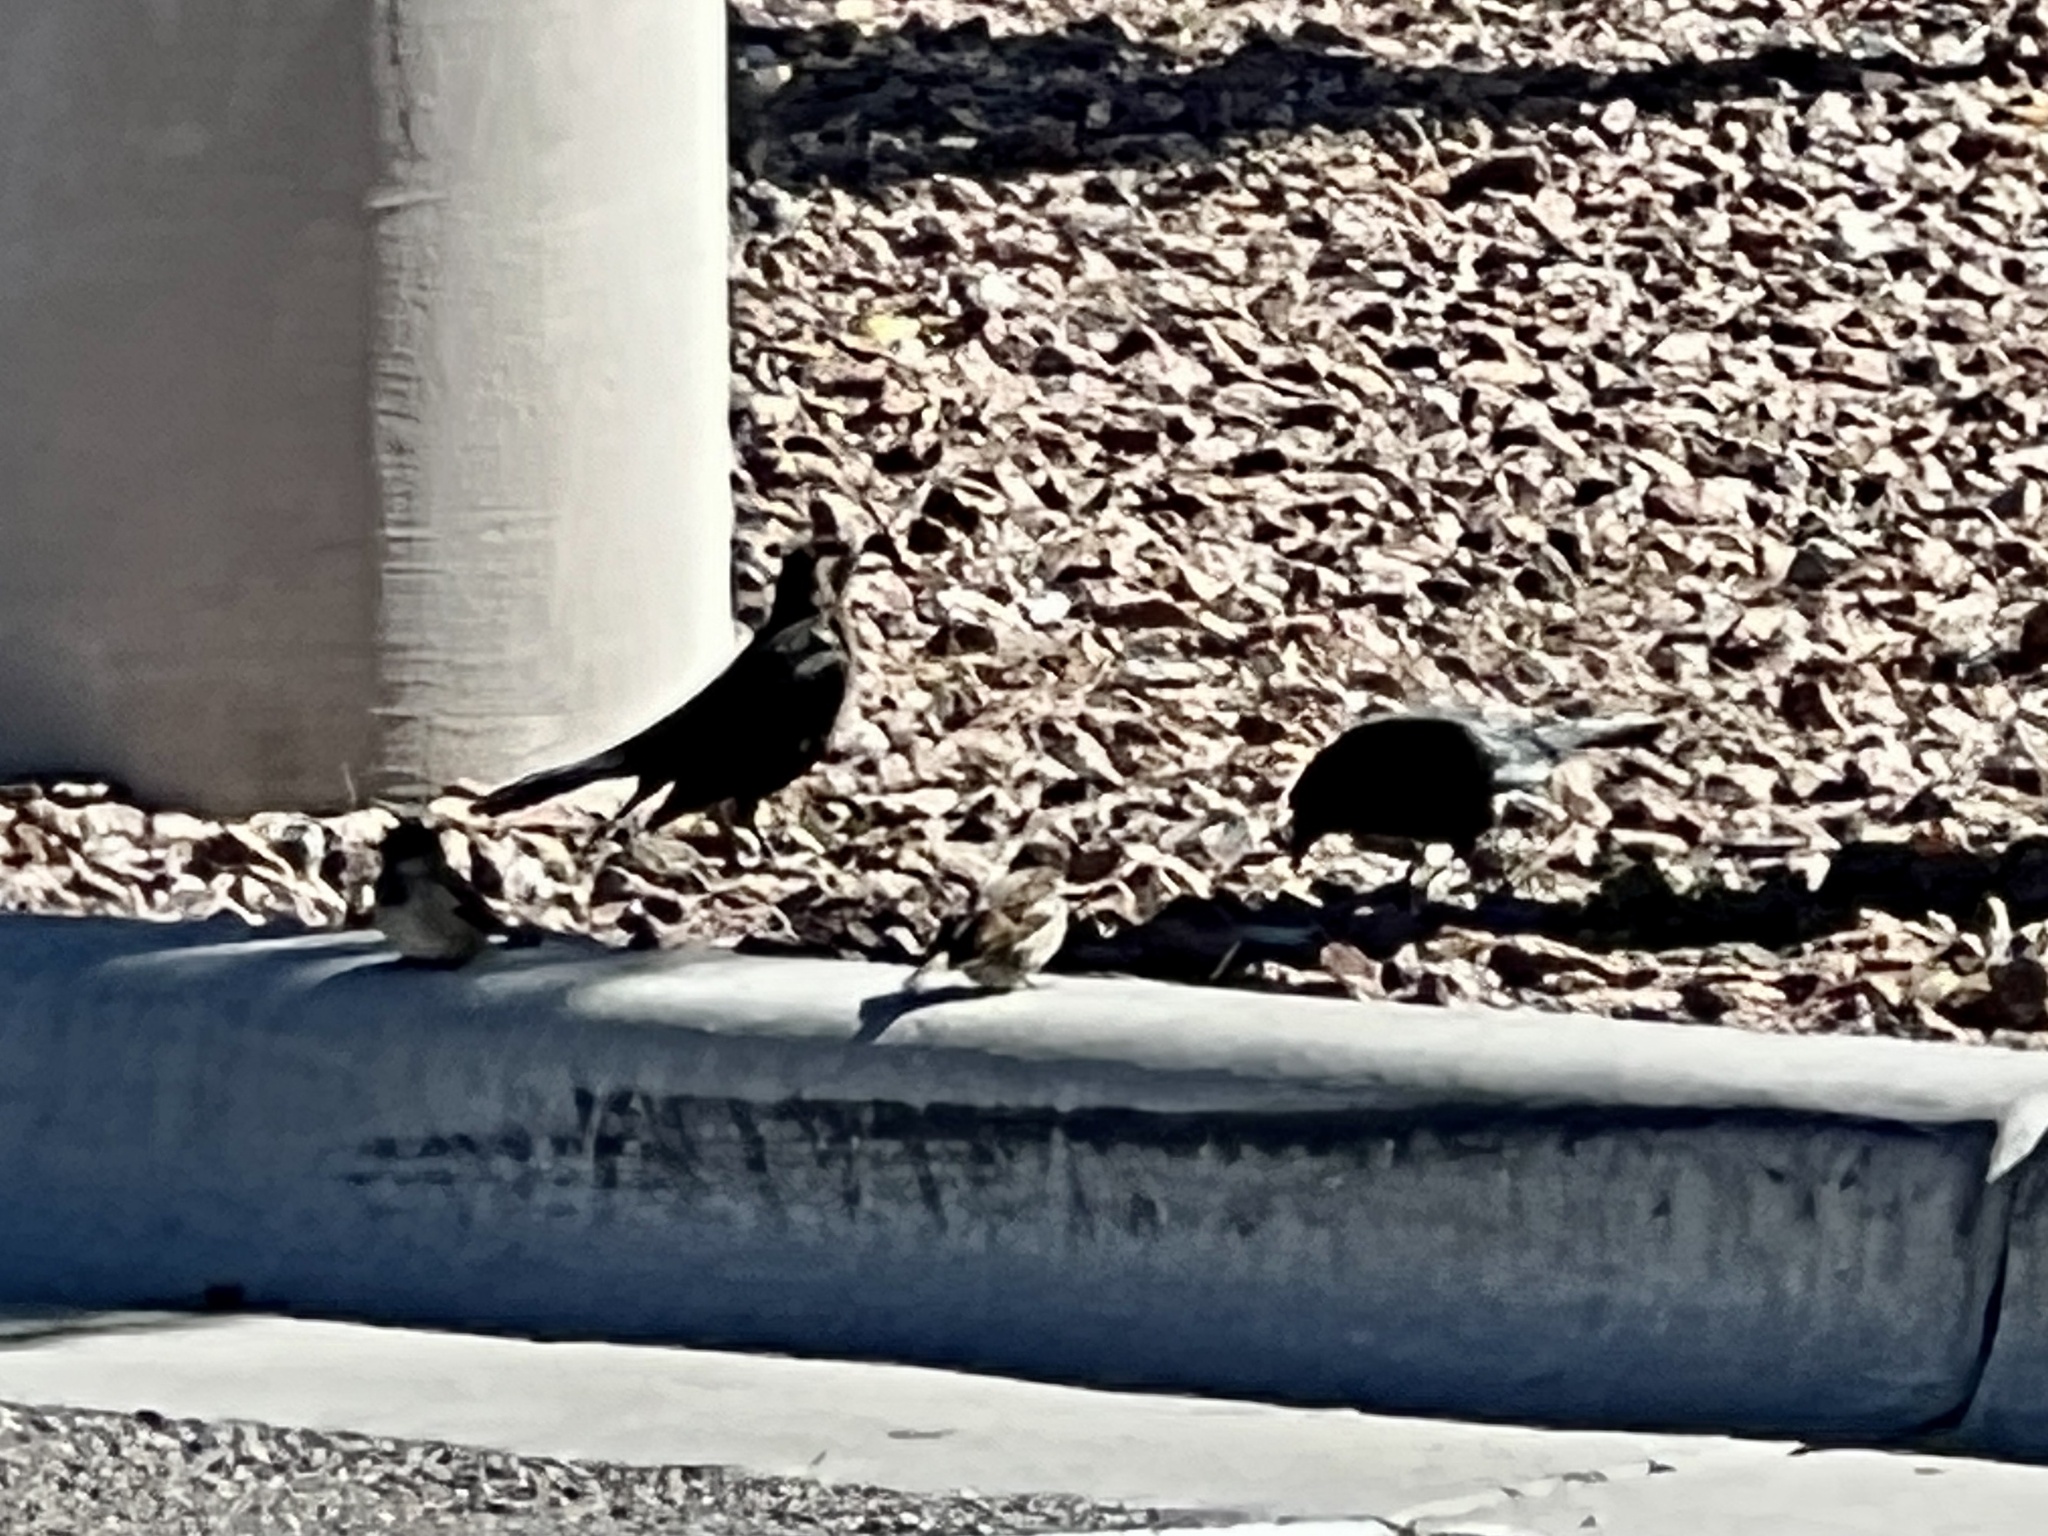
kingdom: Animalia
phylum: Chordata
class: Aves
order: Passeriformes
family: Icteridae
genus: Quiscalus
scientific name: Quiscalus mexicanus
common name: Great-tailed grackle
